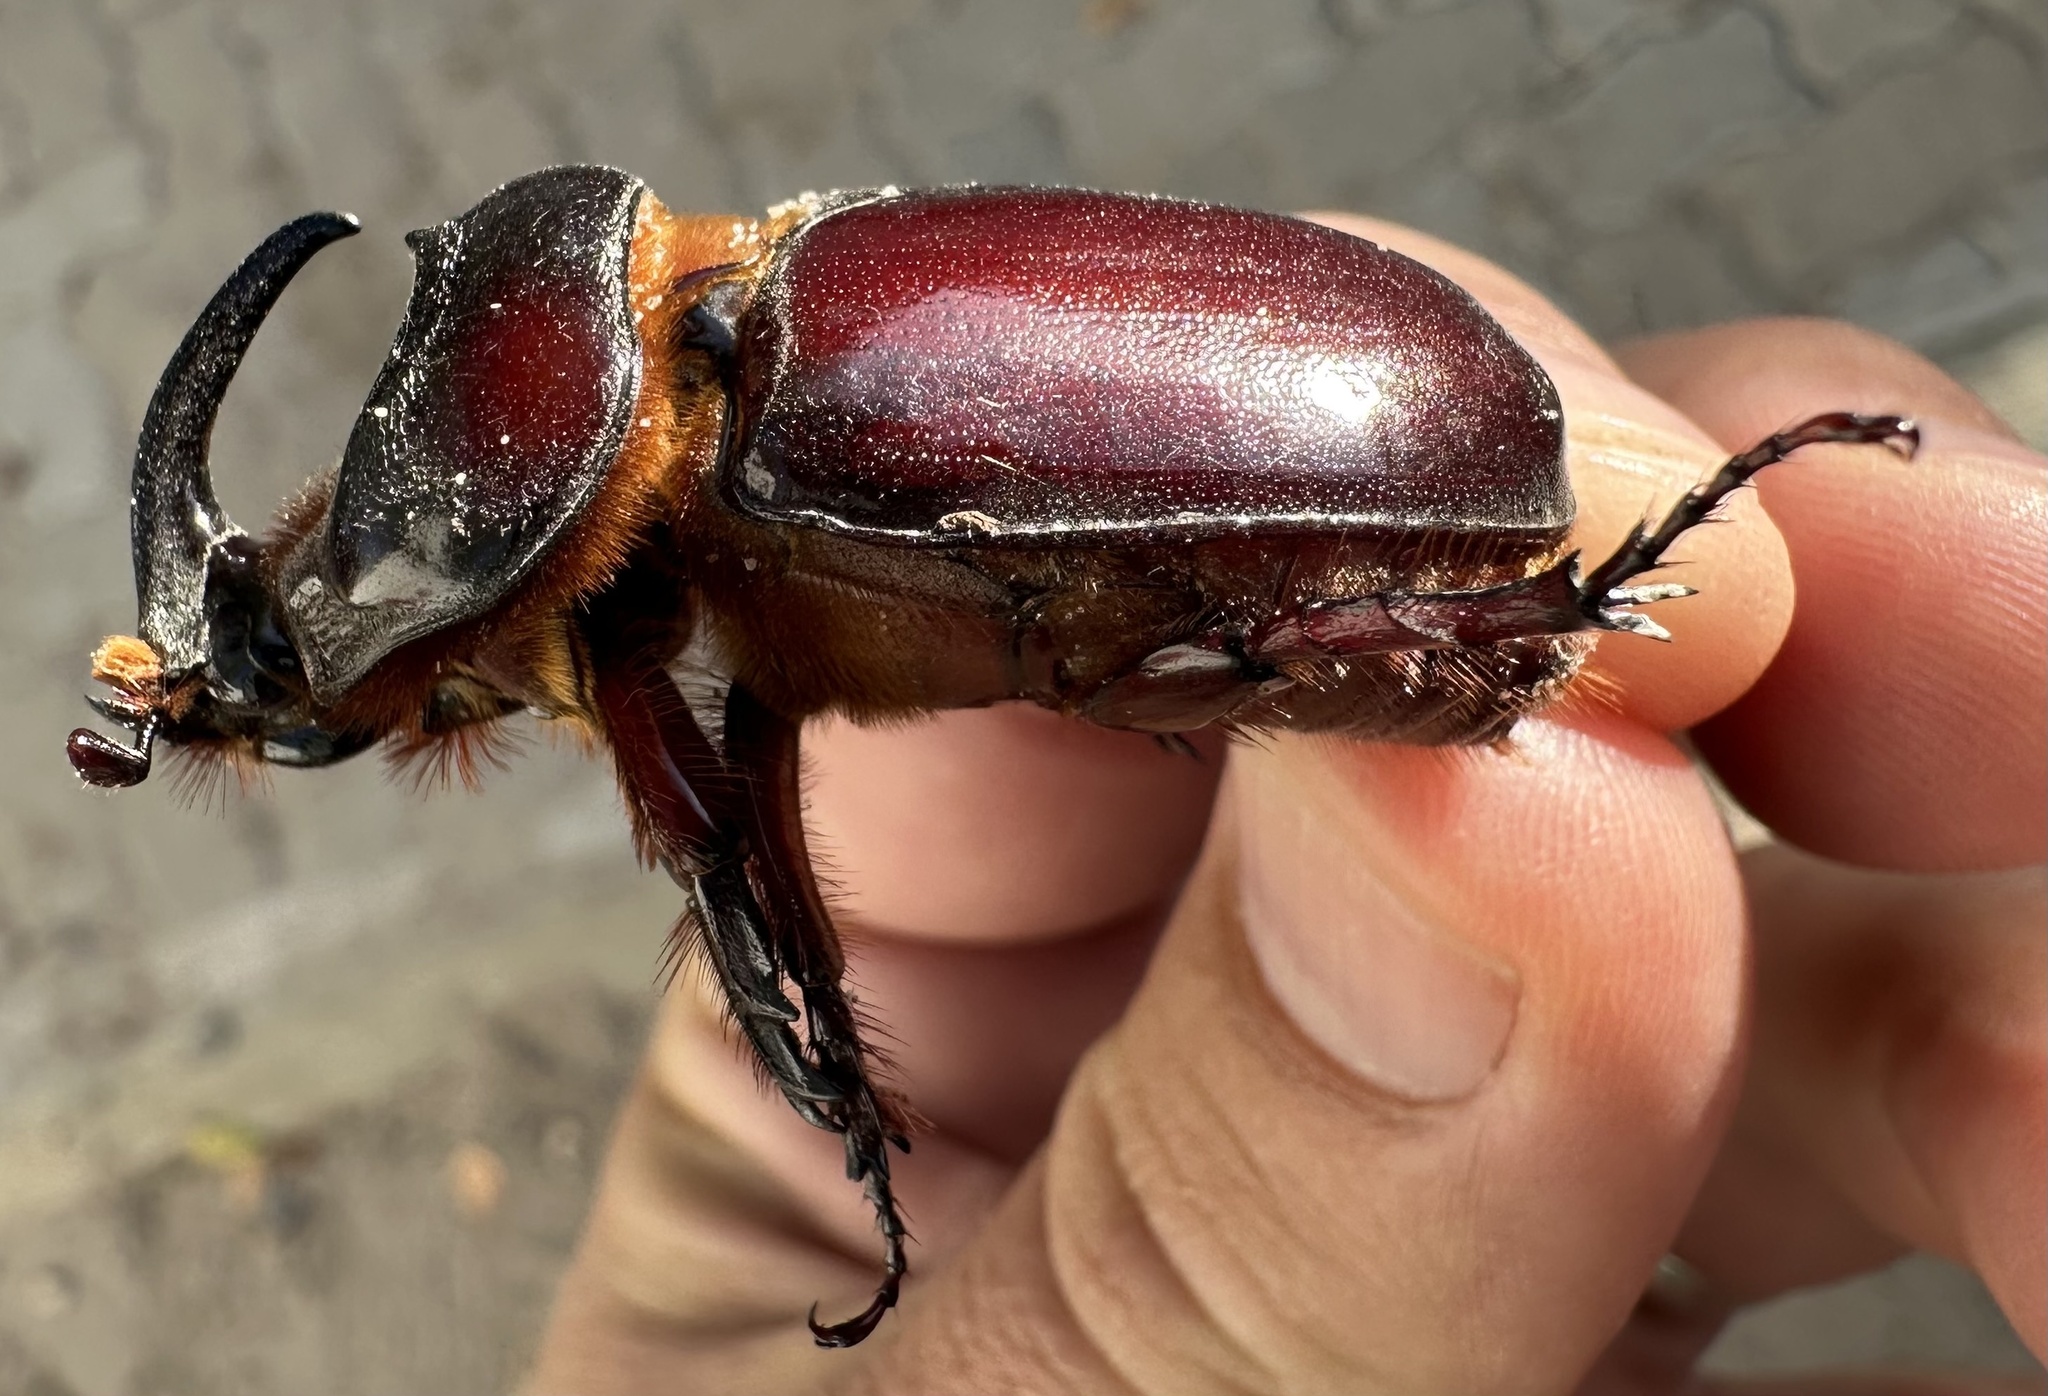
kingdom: Animalia
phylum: Arthropoda
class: Insecta
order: Coleoptera
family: Scarabaeidae
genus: Oryctes
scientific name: Oryctes boas
